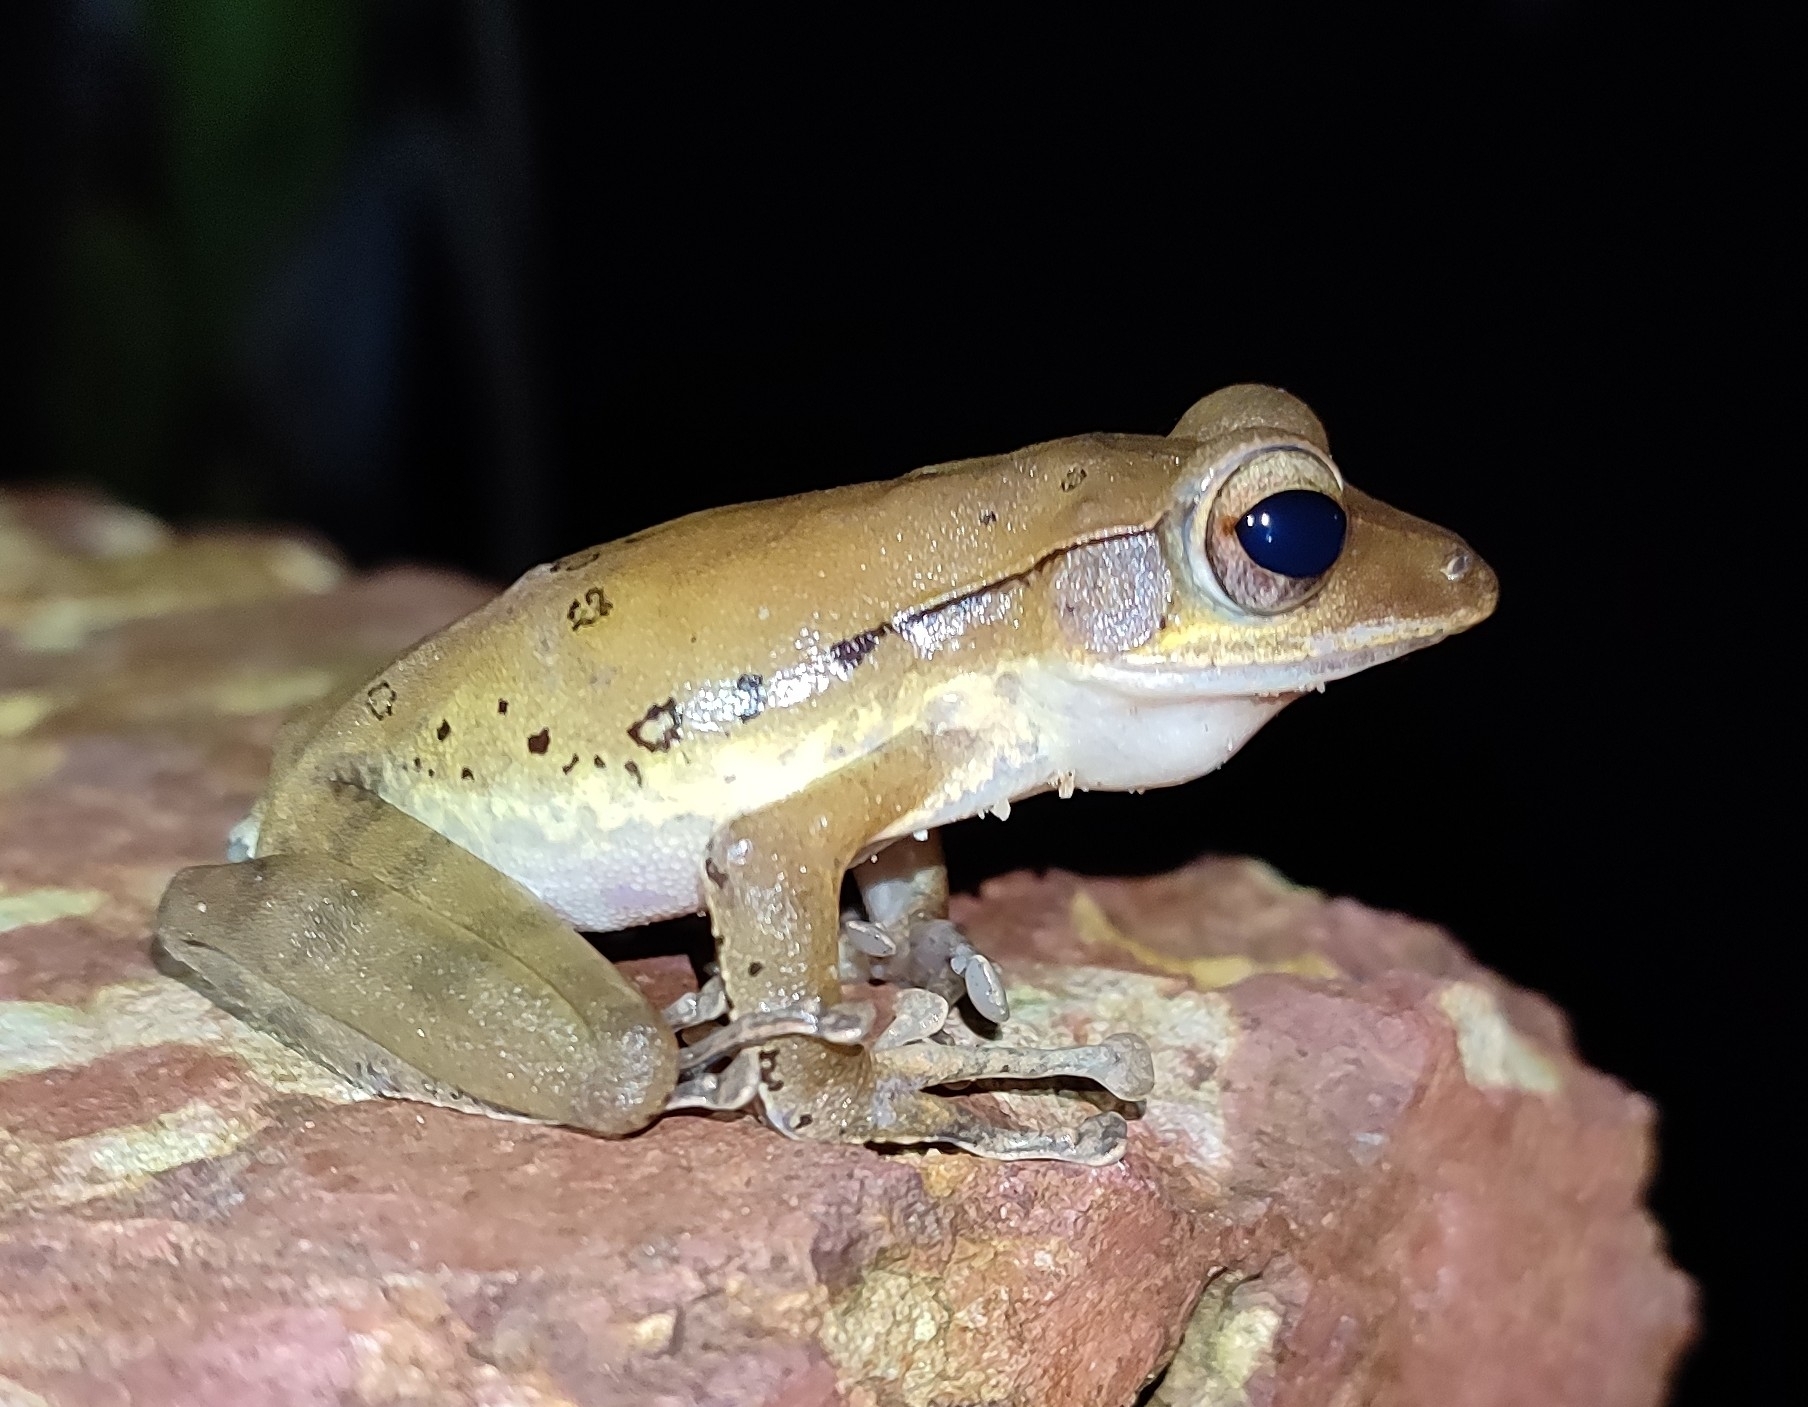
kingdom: Animalia
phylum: Chordata
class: Amphibia
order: Anura
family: Rhacophoridae
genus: Polypedates
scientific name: Polypedates maculatus
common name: Himalayan tree frog
